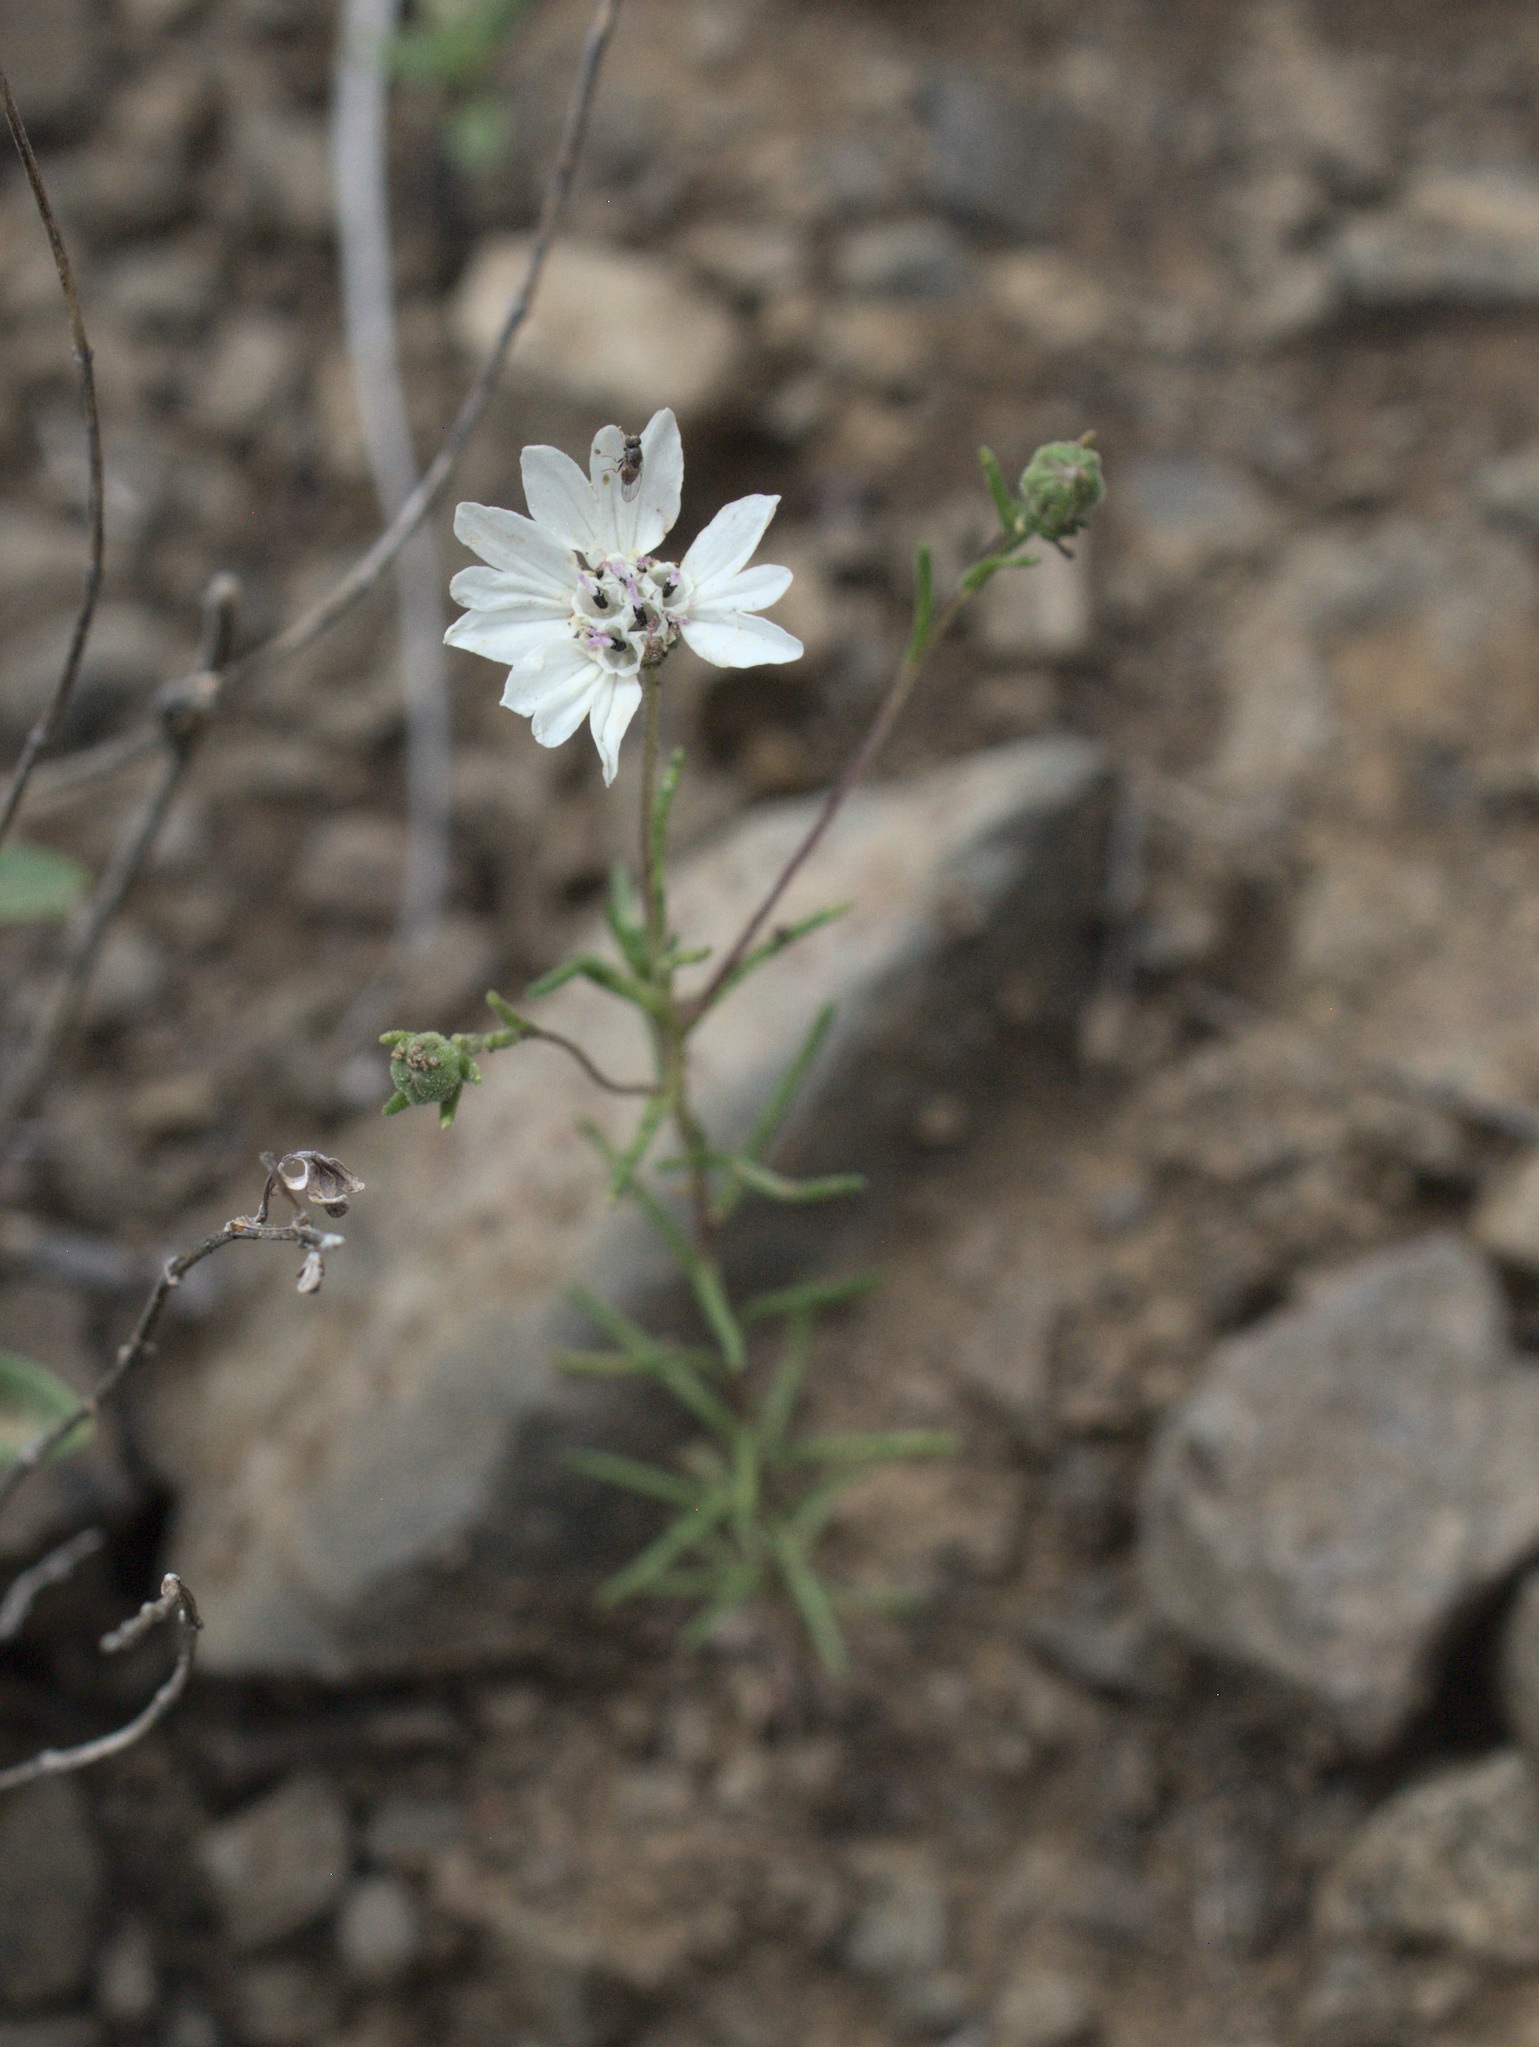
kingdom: Plantae
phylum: Tracheophyta
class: Magnoliopsida
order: Asterales
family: Asteraceae
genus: Blepharipappus
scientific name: Blepharipappus scaber
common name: Rough blepharipappus
